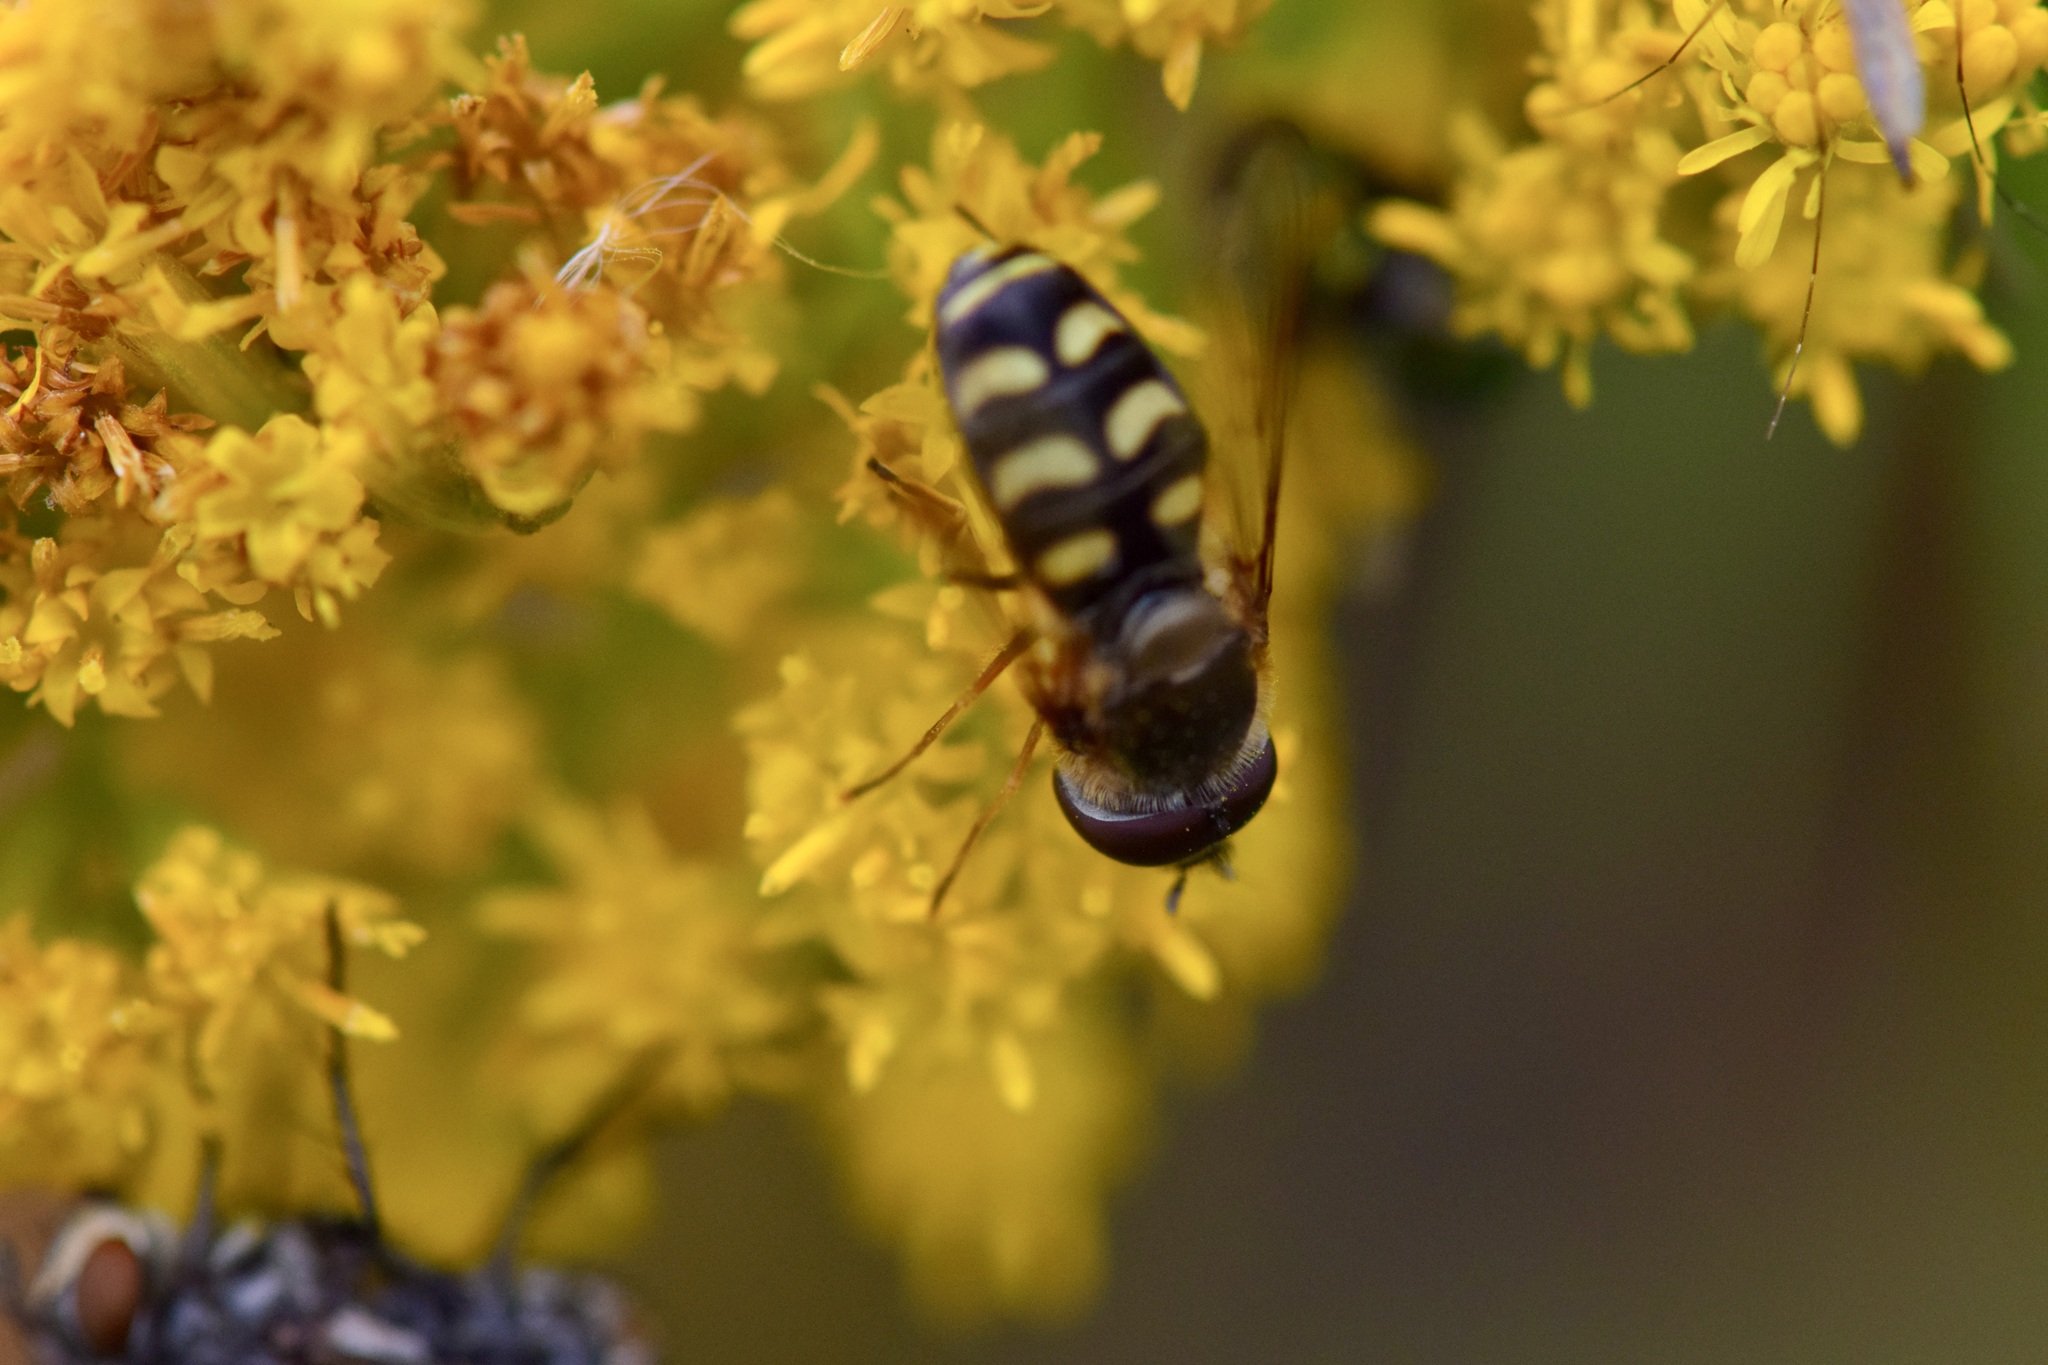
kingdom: Animalia
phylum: Arthropoda
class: Insecta
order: Diptera
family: Syrphidae
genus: Lapposyrphus
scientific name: Lapposyrphus lapponicus
